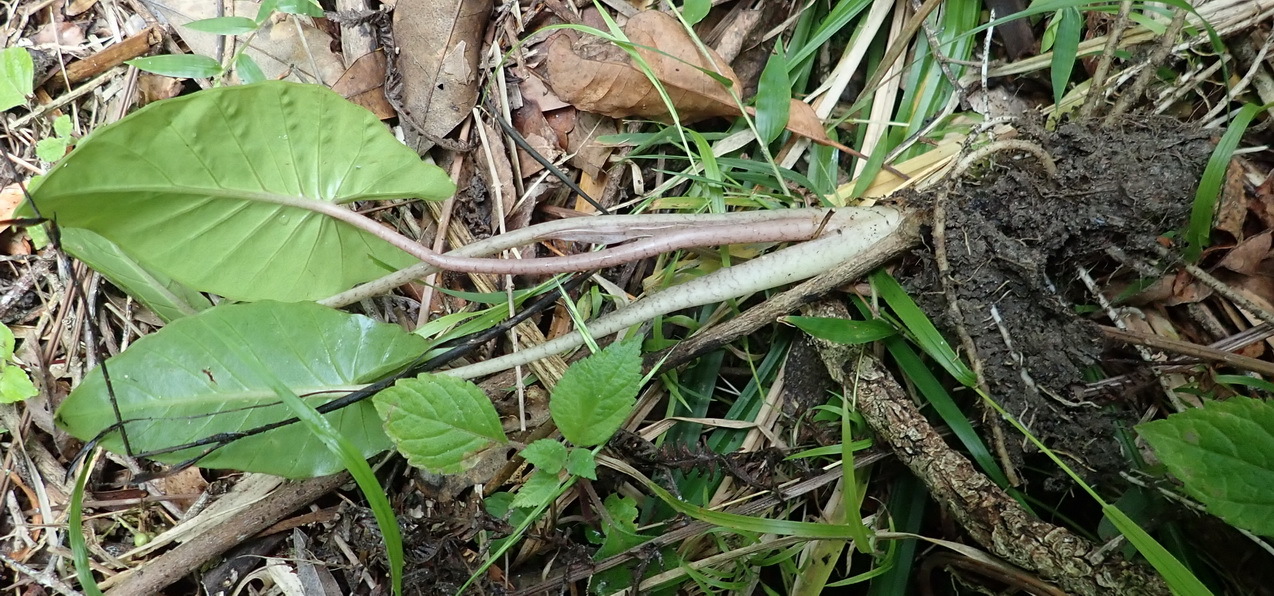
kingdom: Plantae
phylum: Tracheophyta
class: Liliopsida
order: Alismatales
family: Araceae
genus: Alocasia
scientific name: Alocasia odora
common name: Asian taro
